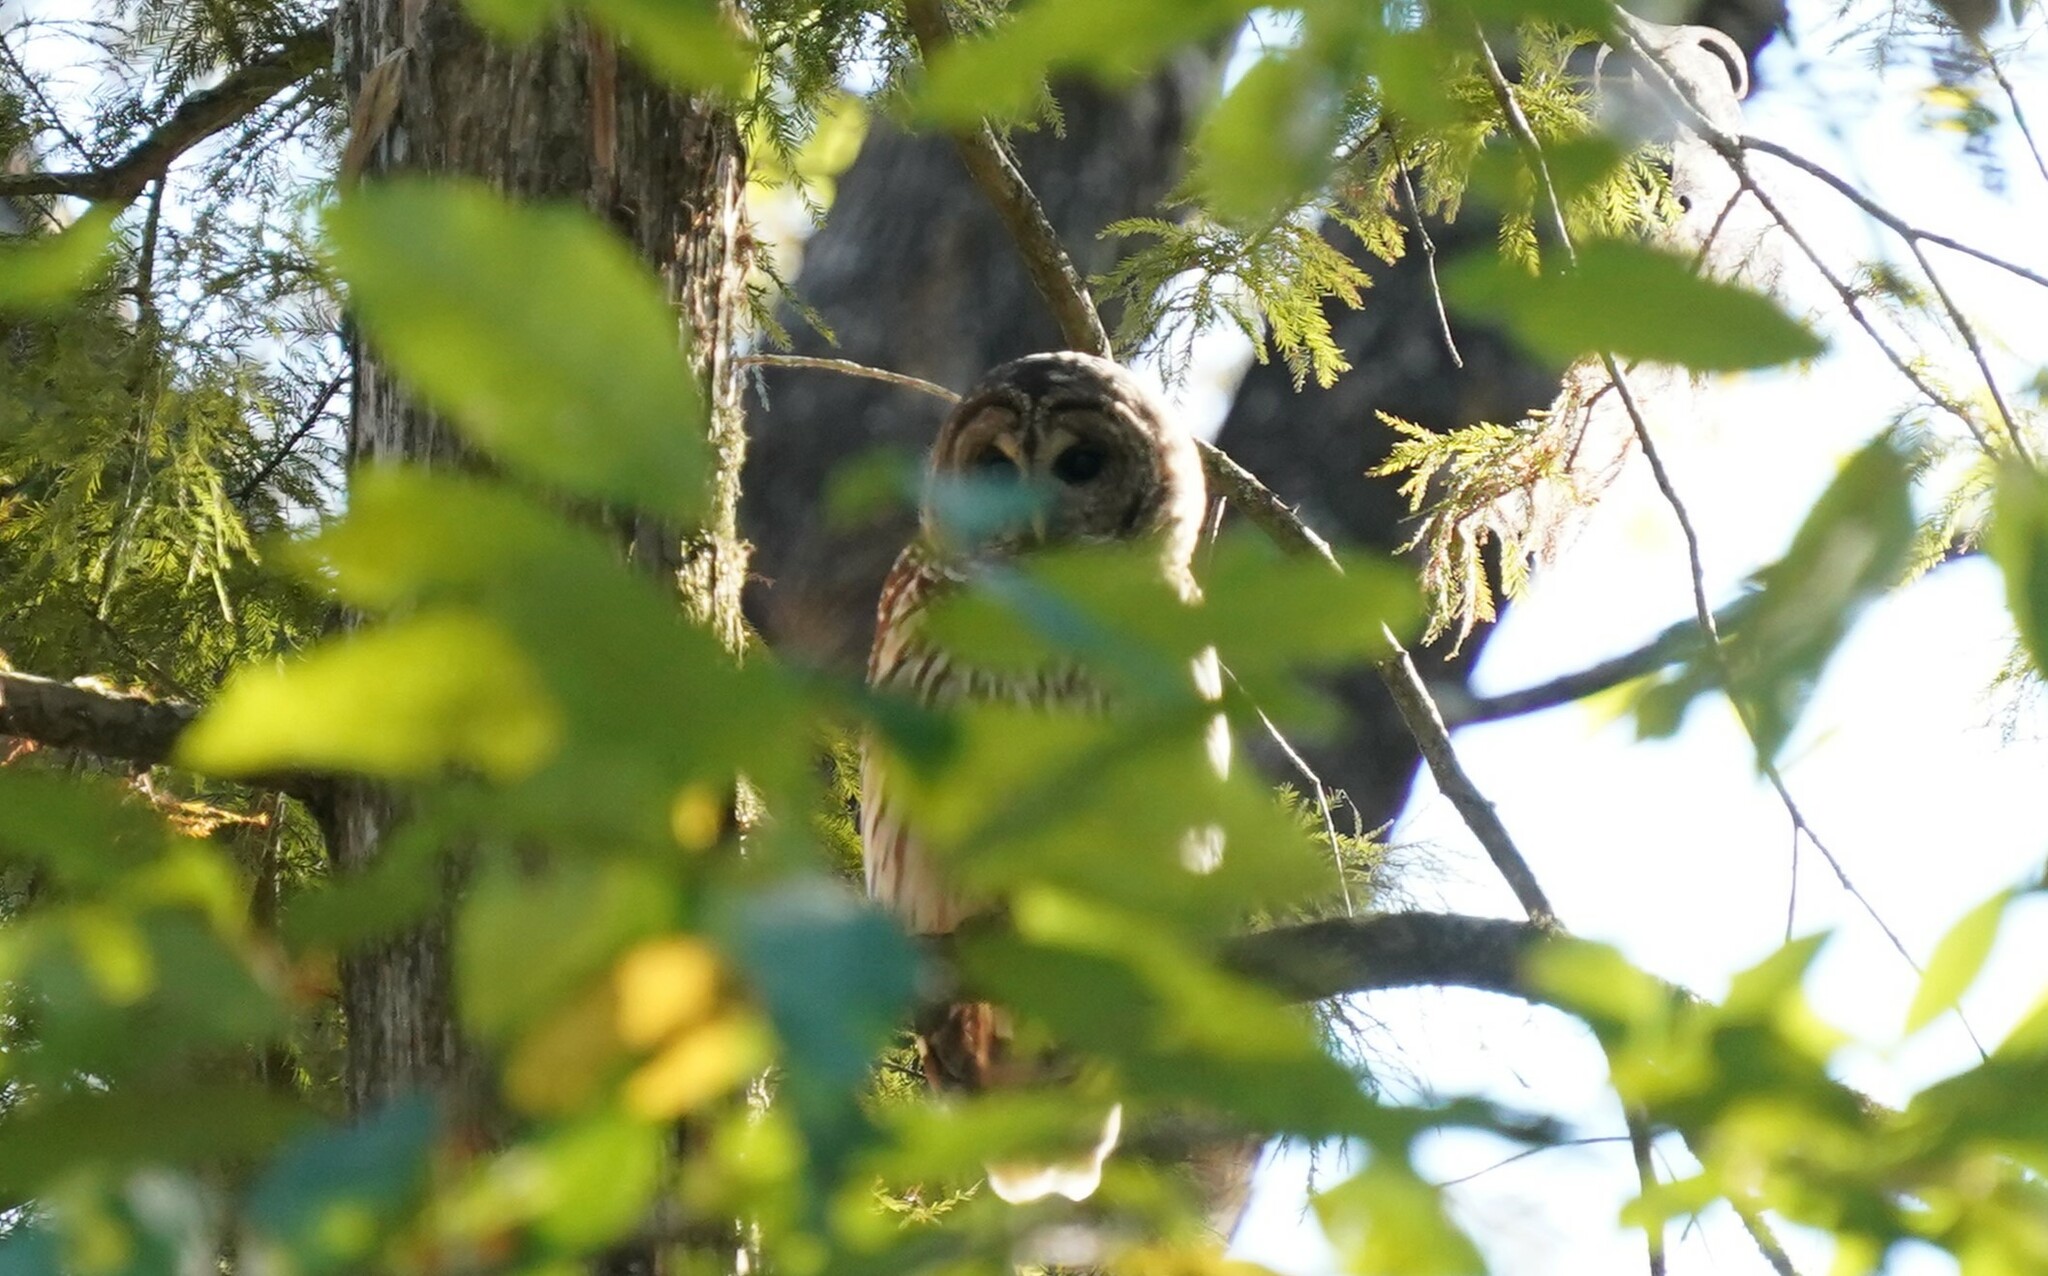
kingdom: Animalia
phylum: Chordata
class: Aves
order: Strigiformes
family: Strigidae
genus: Strix
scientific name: Strix varia
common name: Barred owl
